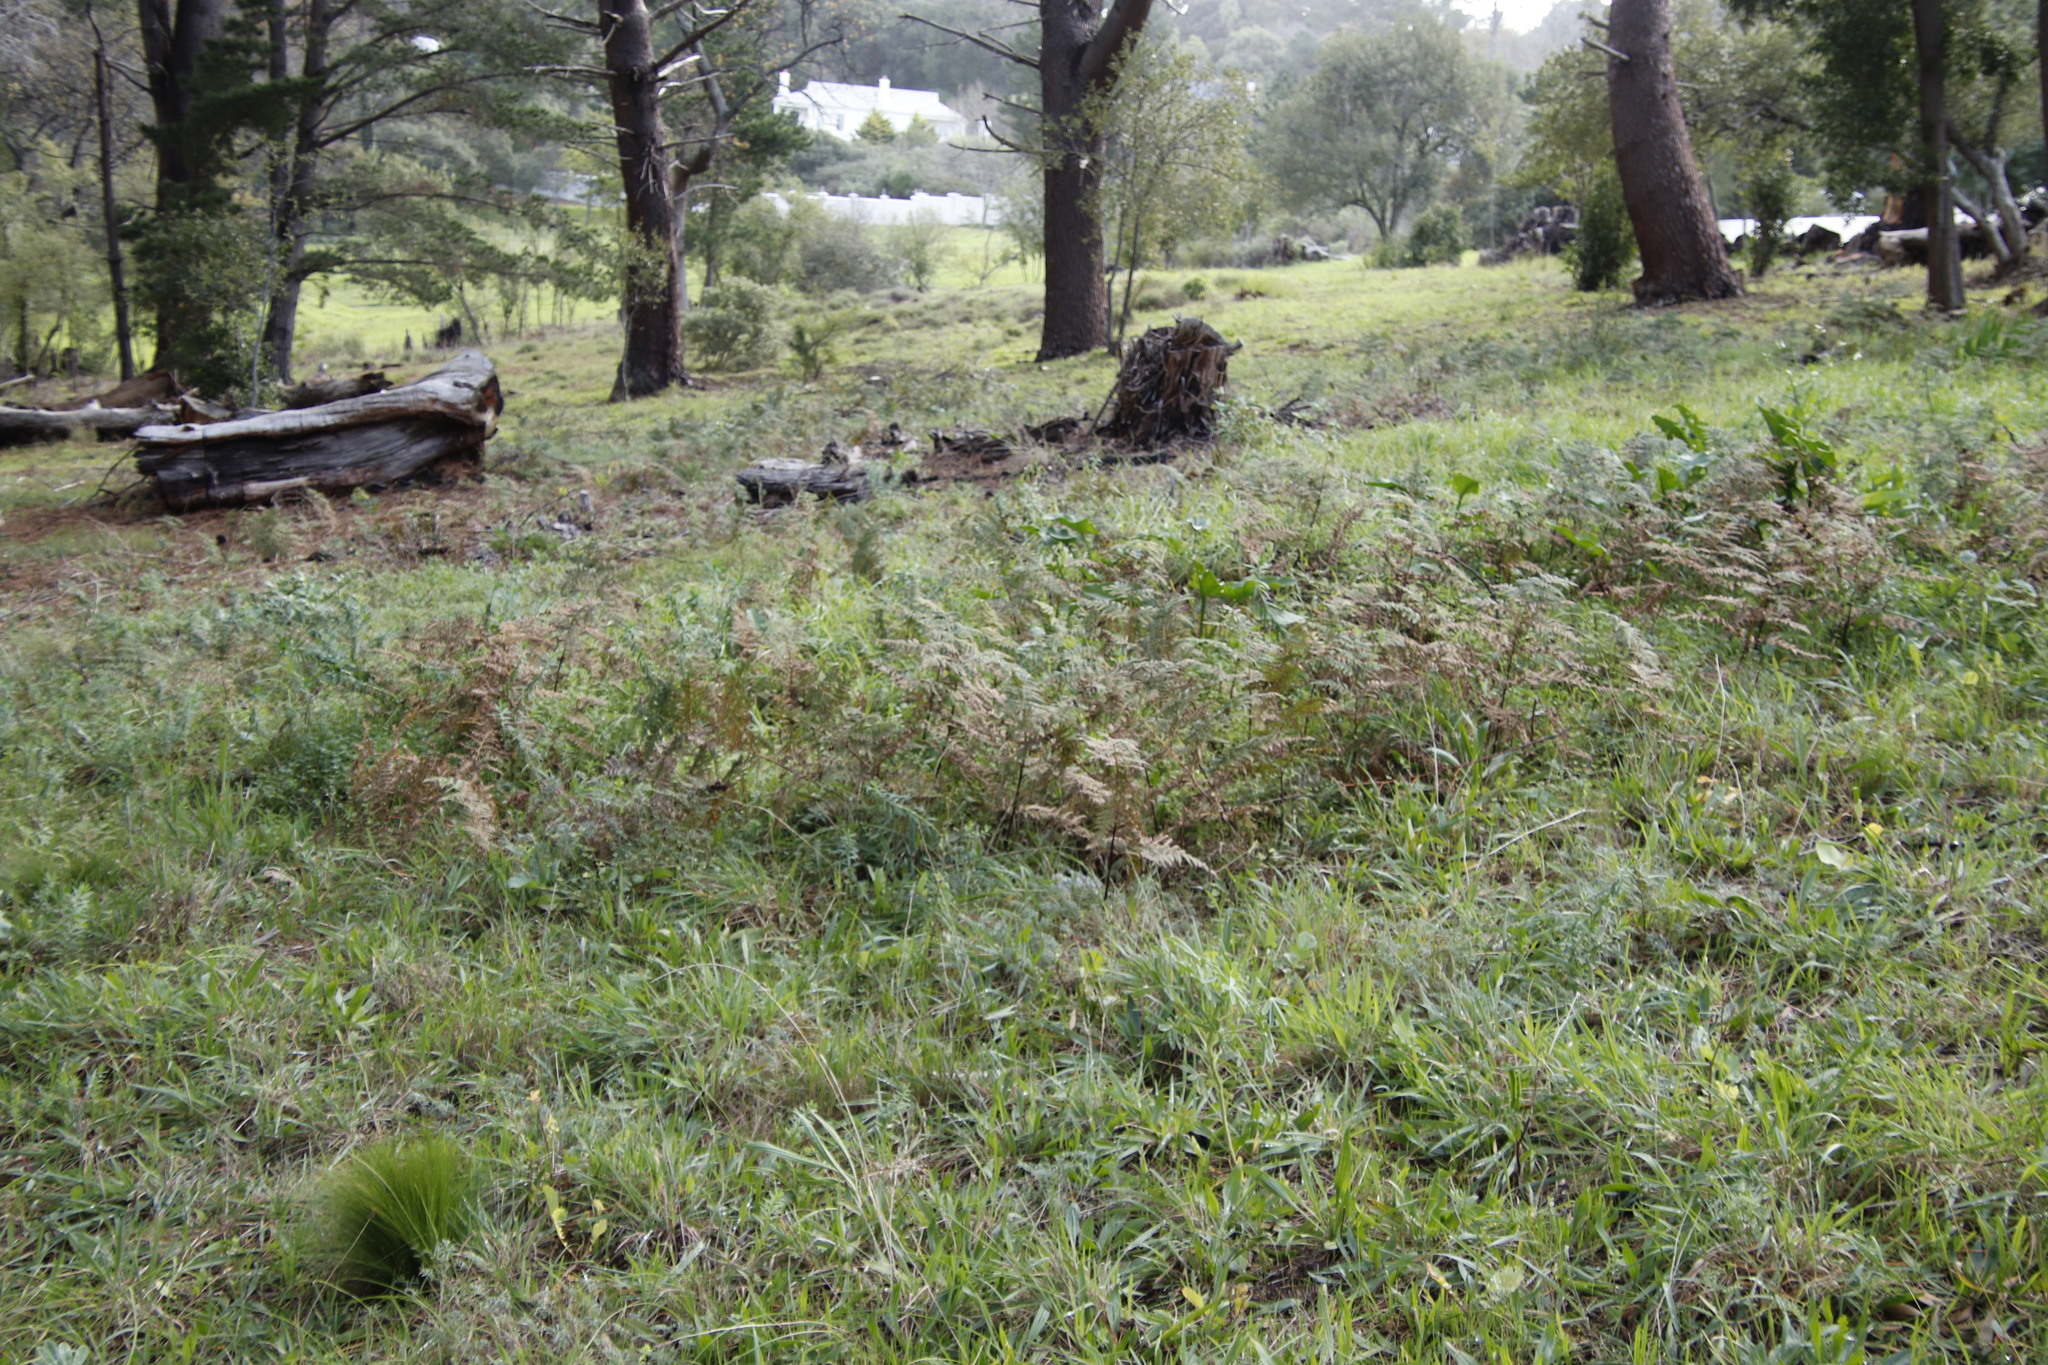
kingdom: Plantae
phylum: Tracheophyta
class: Polypodiopsida
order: Polypodiales
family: Dennstaedtiaceae
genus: Pteridium
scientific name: Pteridium aquilinum
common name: Bracken
